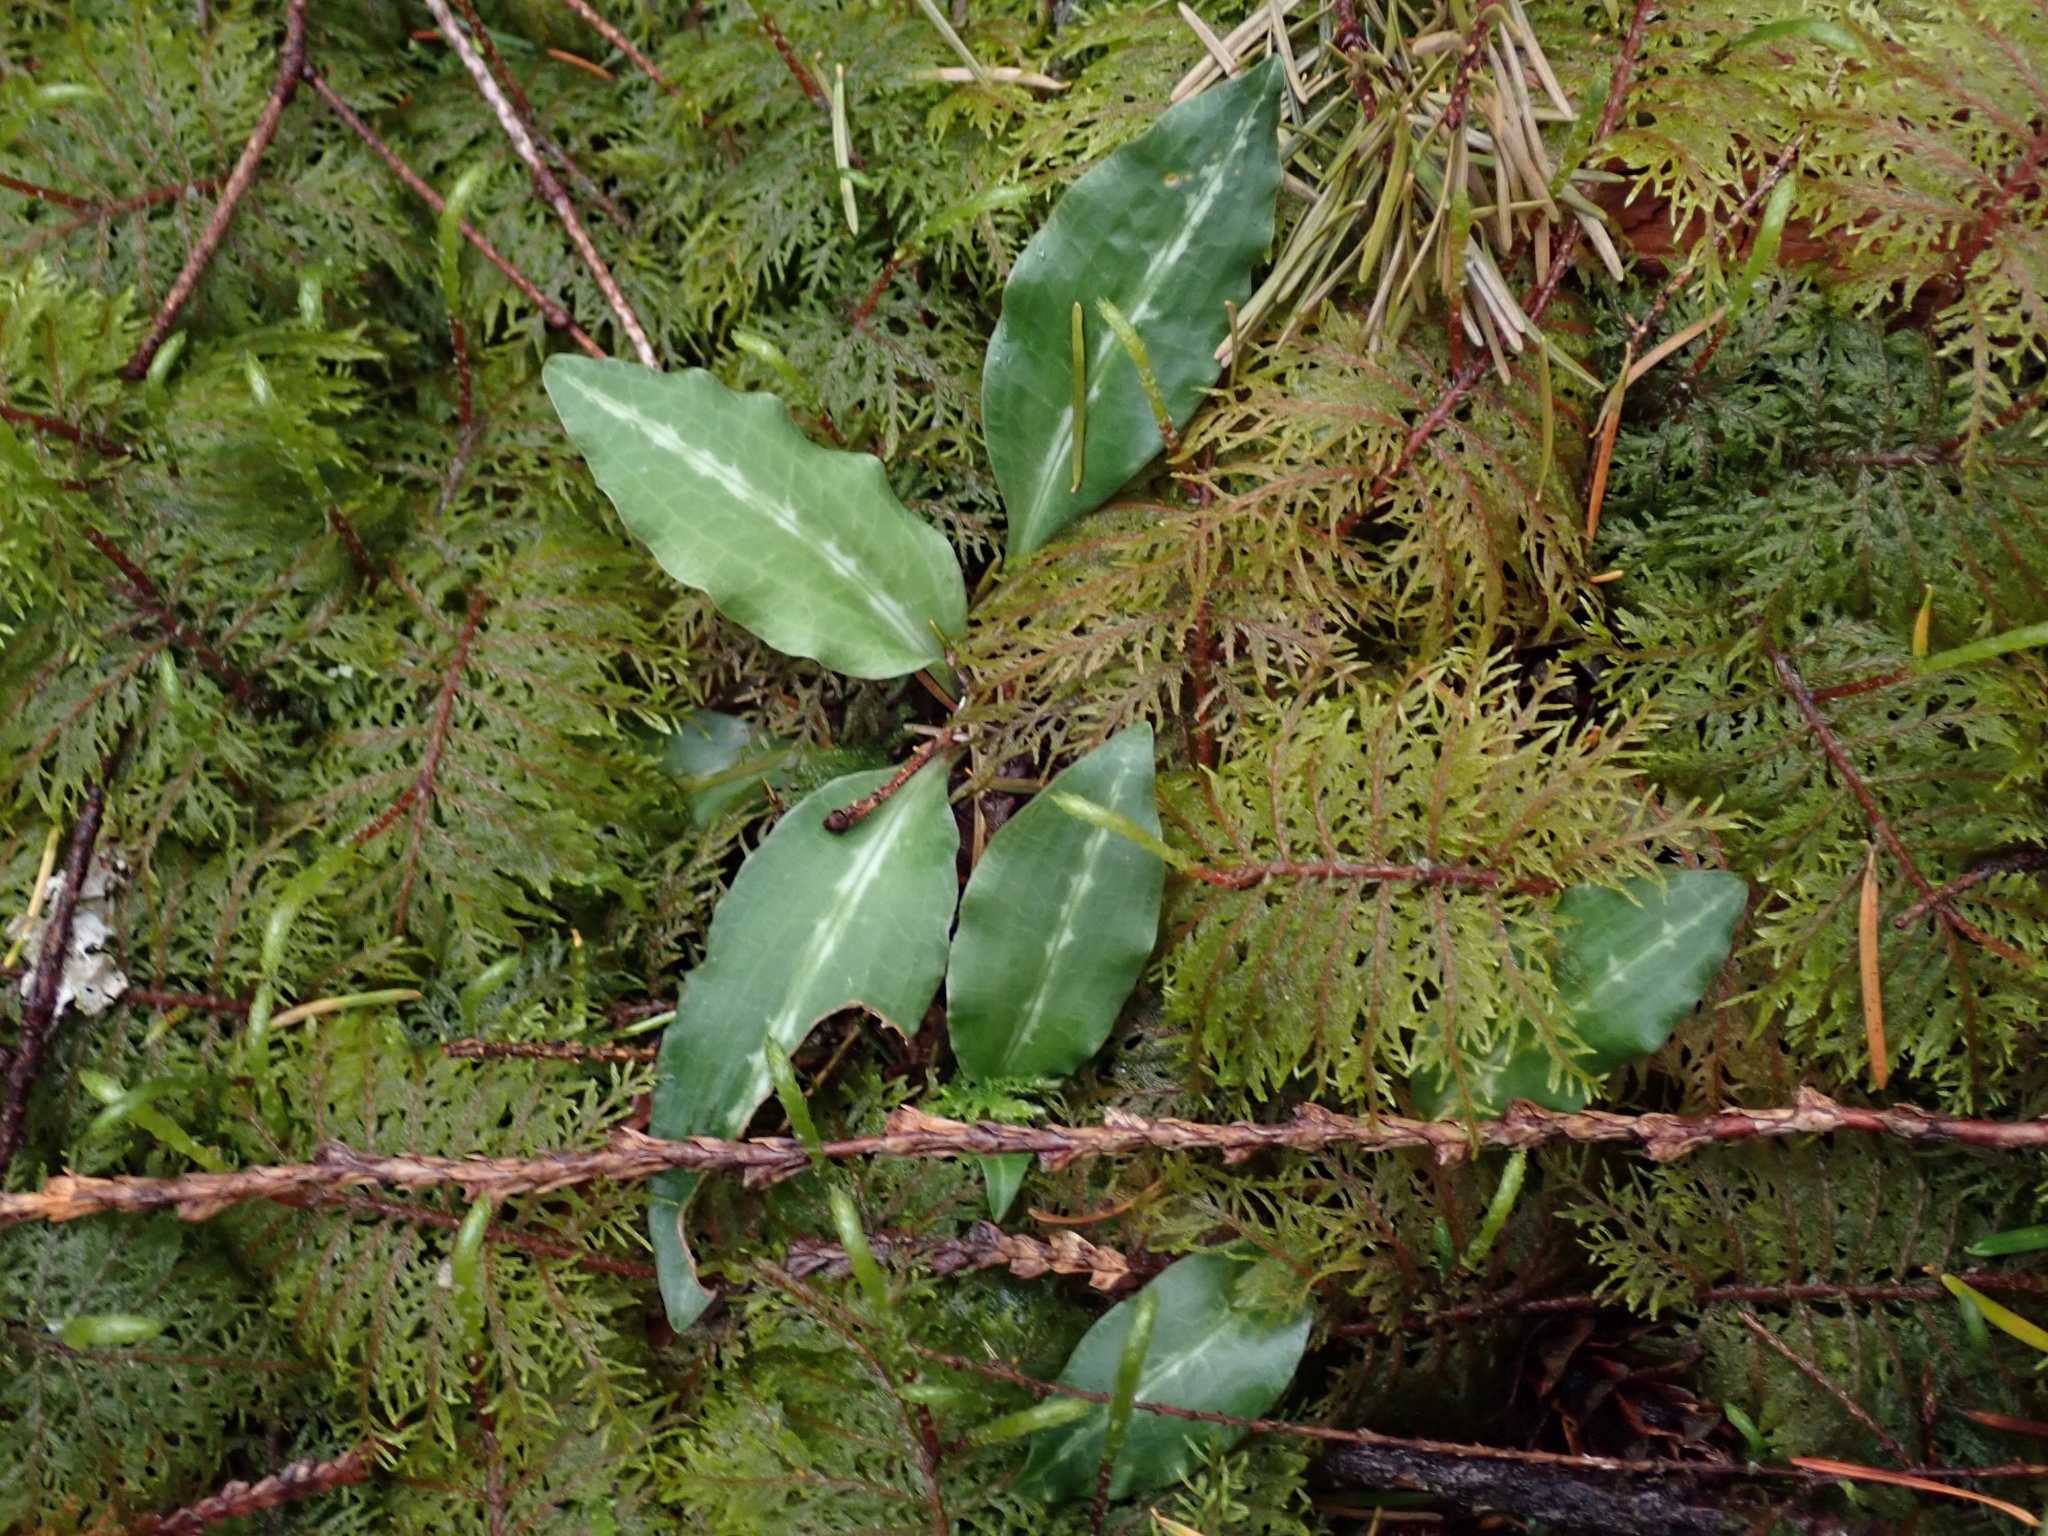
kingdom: Plantae
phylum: Tracheophyta
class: Liliopsida
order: Asparagales
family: Orchidaceae
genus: Goodyera
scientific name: Goodyera oblongifolia
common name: Giant rattlesnake-plantain
